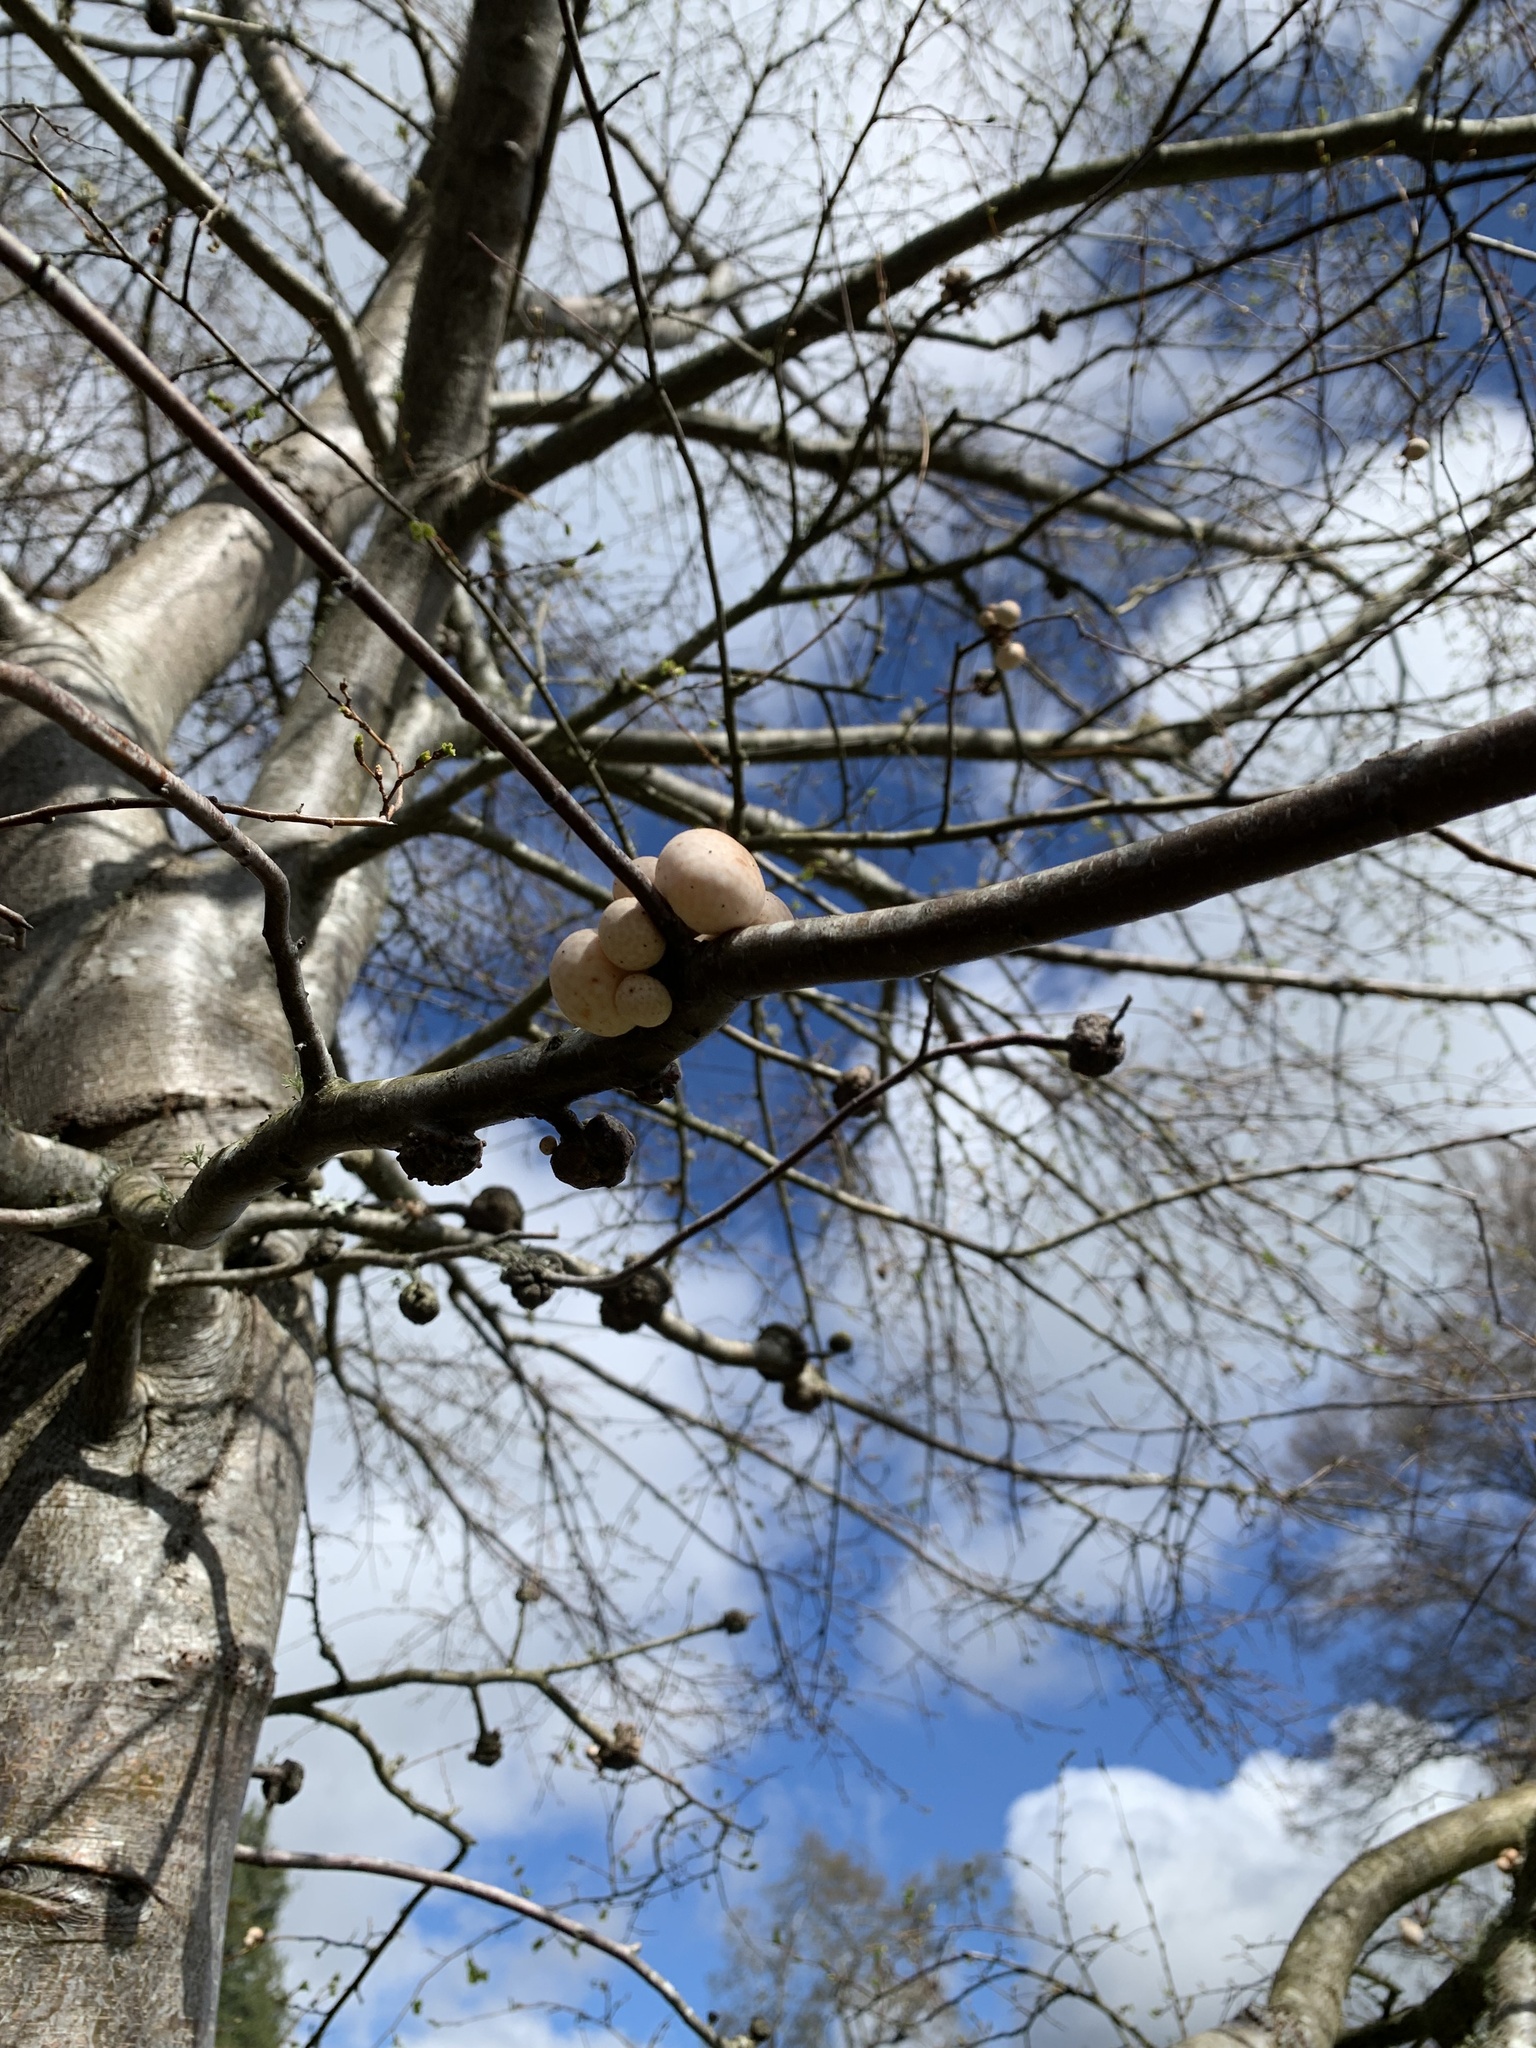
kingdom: Fungi
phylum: Ascomycota
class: Leotiomycetes
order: Cyttariales
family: Cyttariaceae
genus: Cyttaria
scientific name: Cyttaria espinosae
